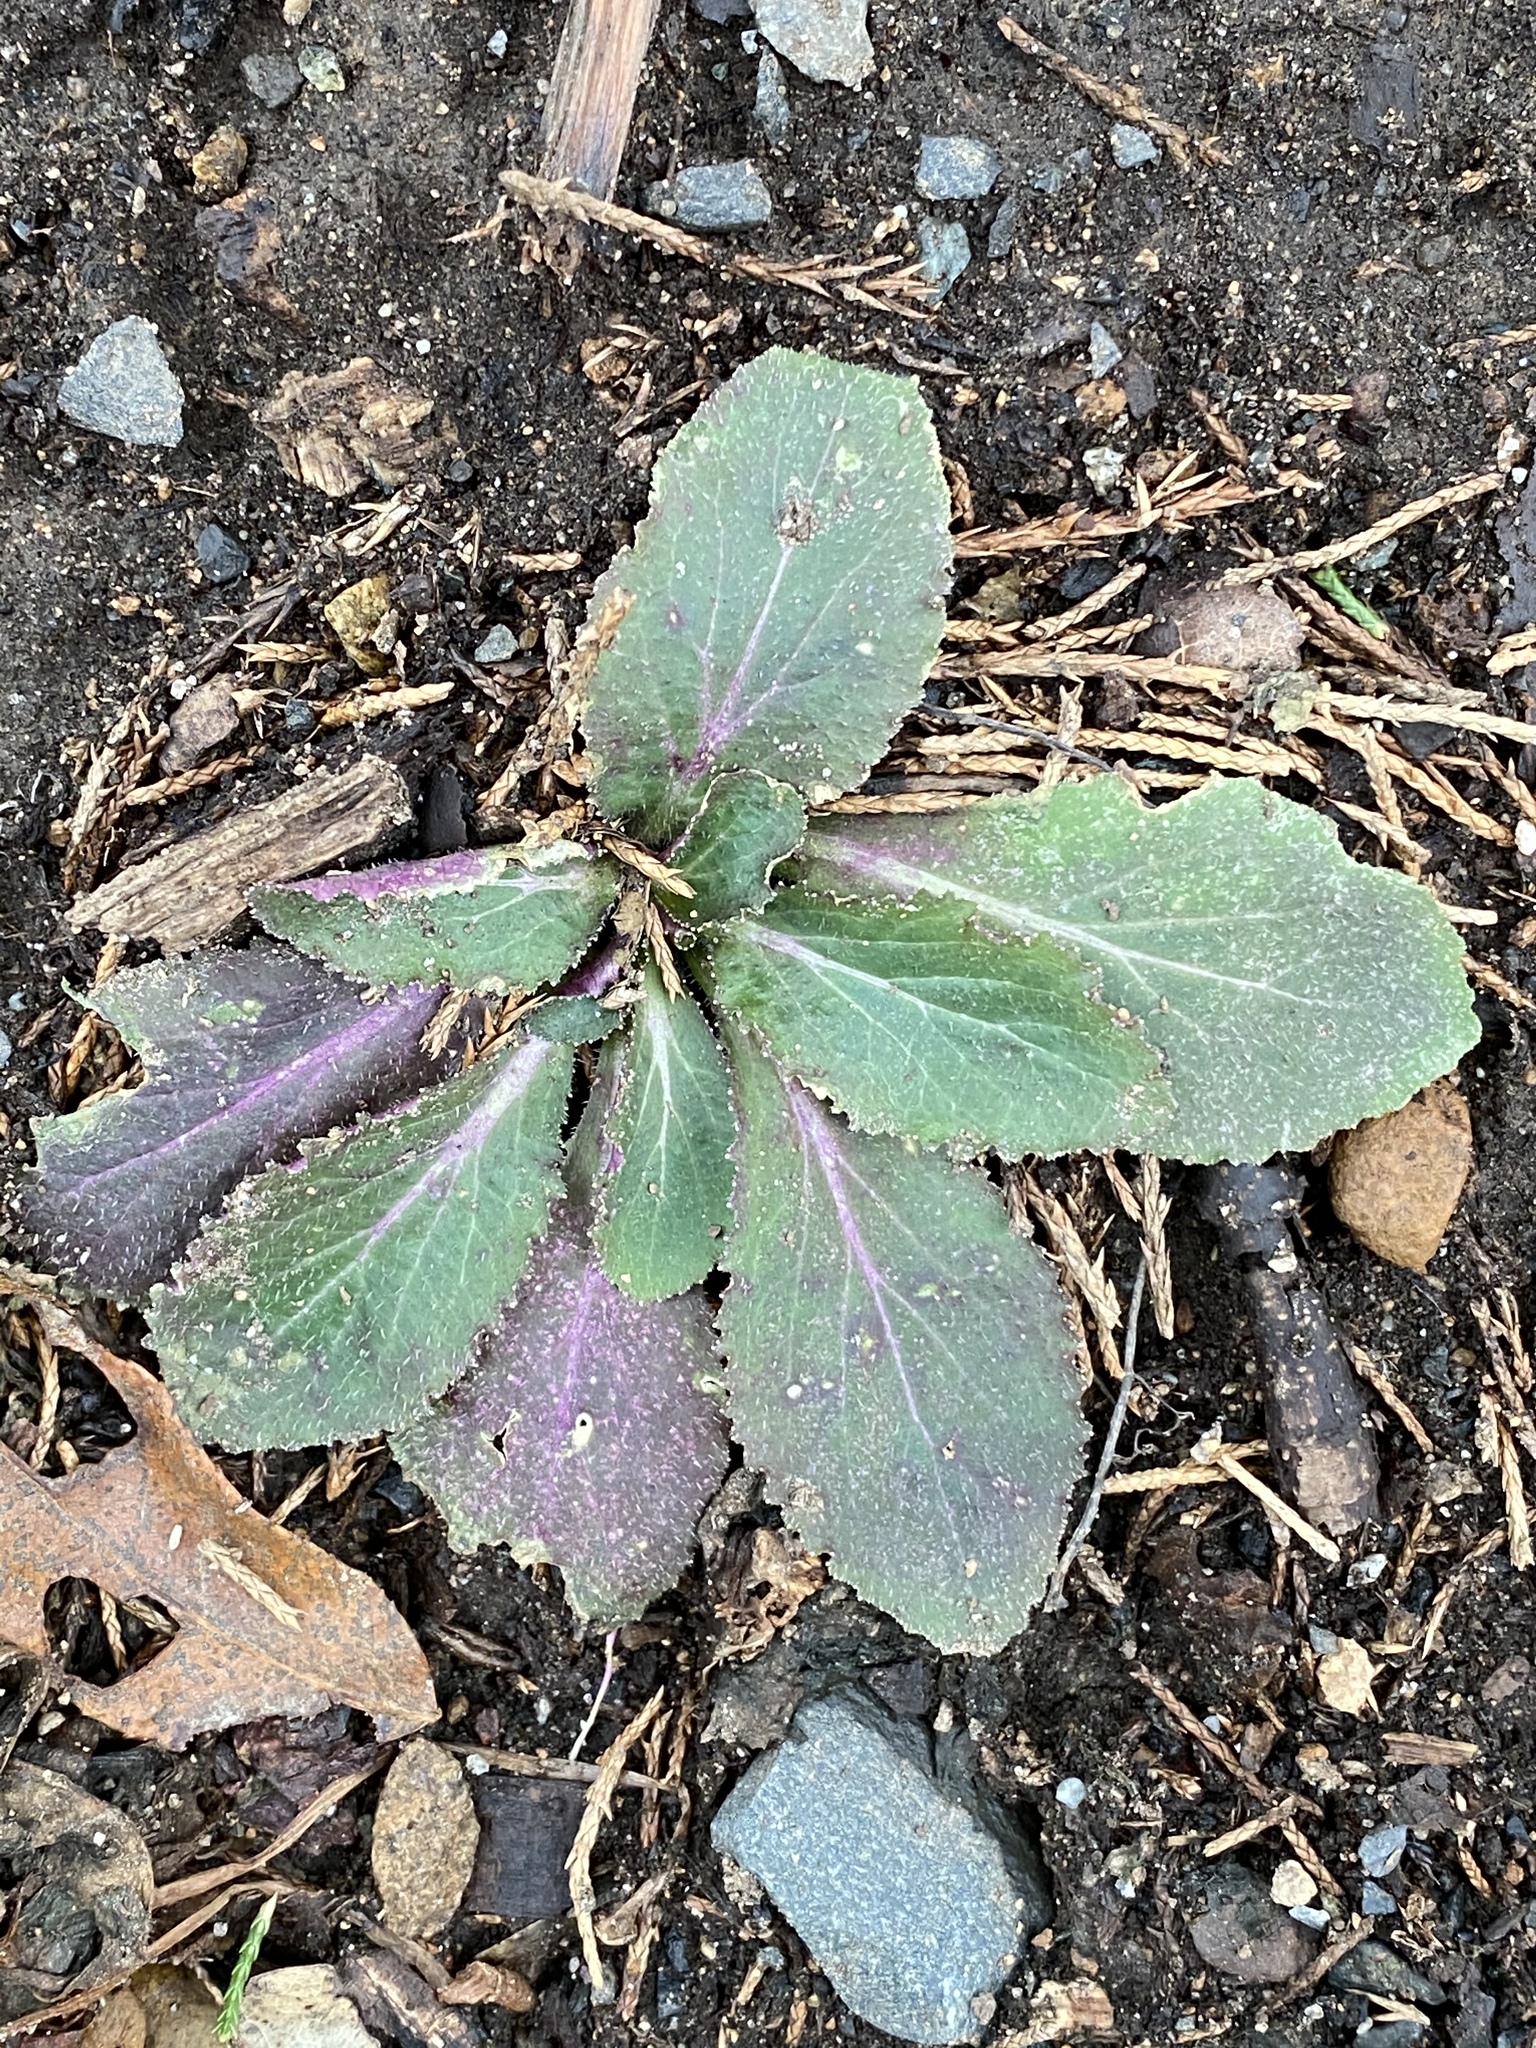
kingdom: Plantae
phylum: Tracheophyta
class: Magnoliopsida
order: Asterales
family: Campanulaceae
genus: Lobelia
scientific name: Lobelia inflata
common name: Indian tobacco
